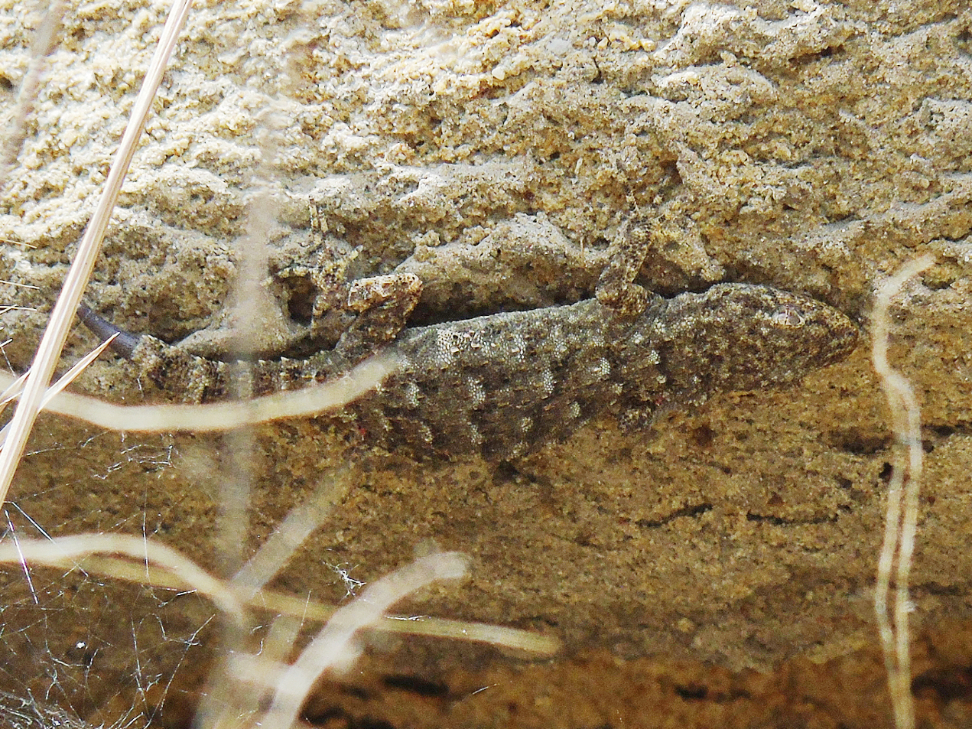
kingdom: Animalia
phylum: Chordata
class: Squamata
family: Gekkonidae
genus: Mediodactylus
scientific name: Mediodactylus kotschyi
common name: Kotschy's gecko
